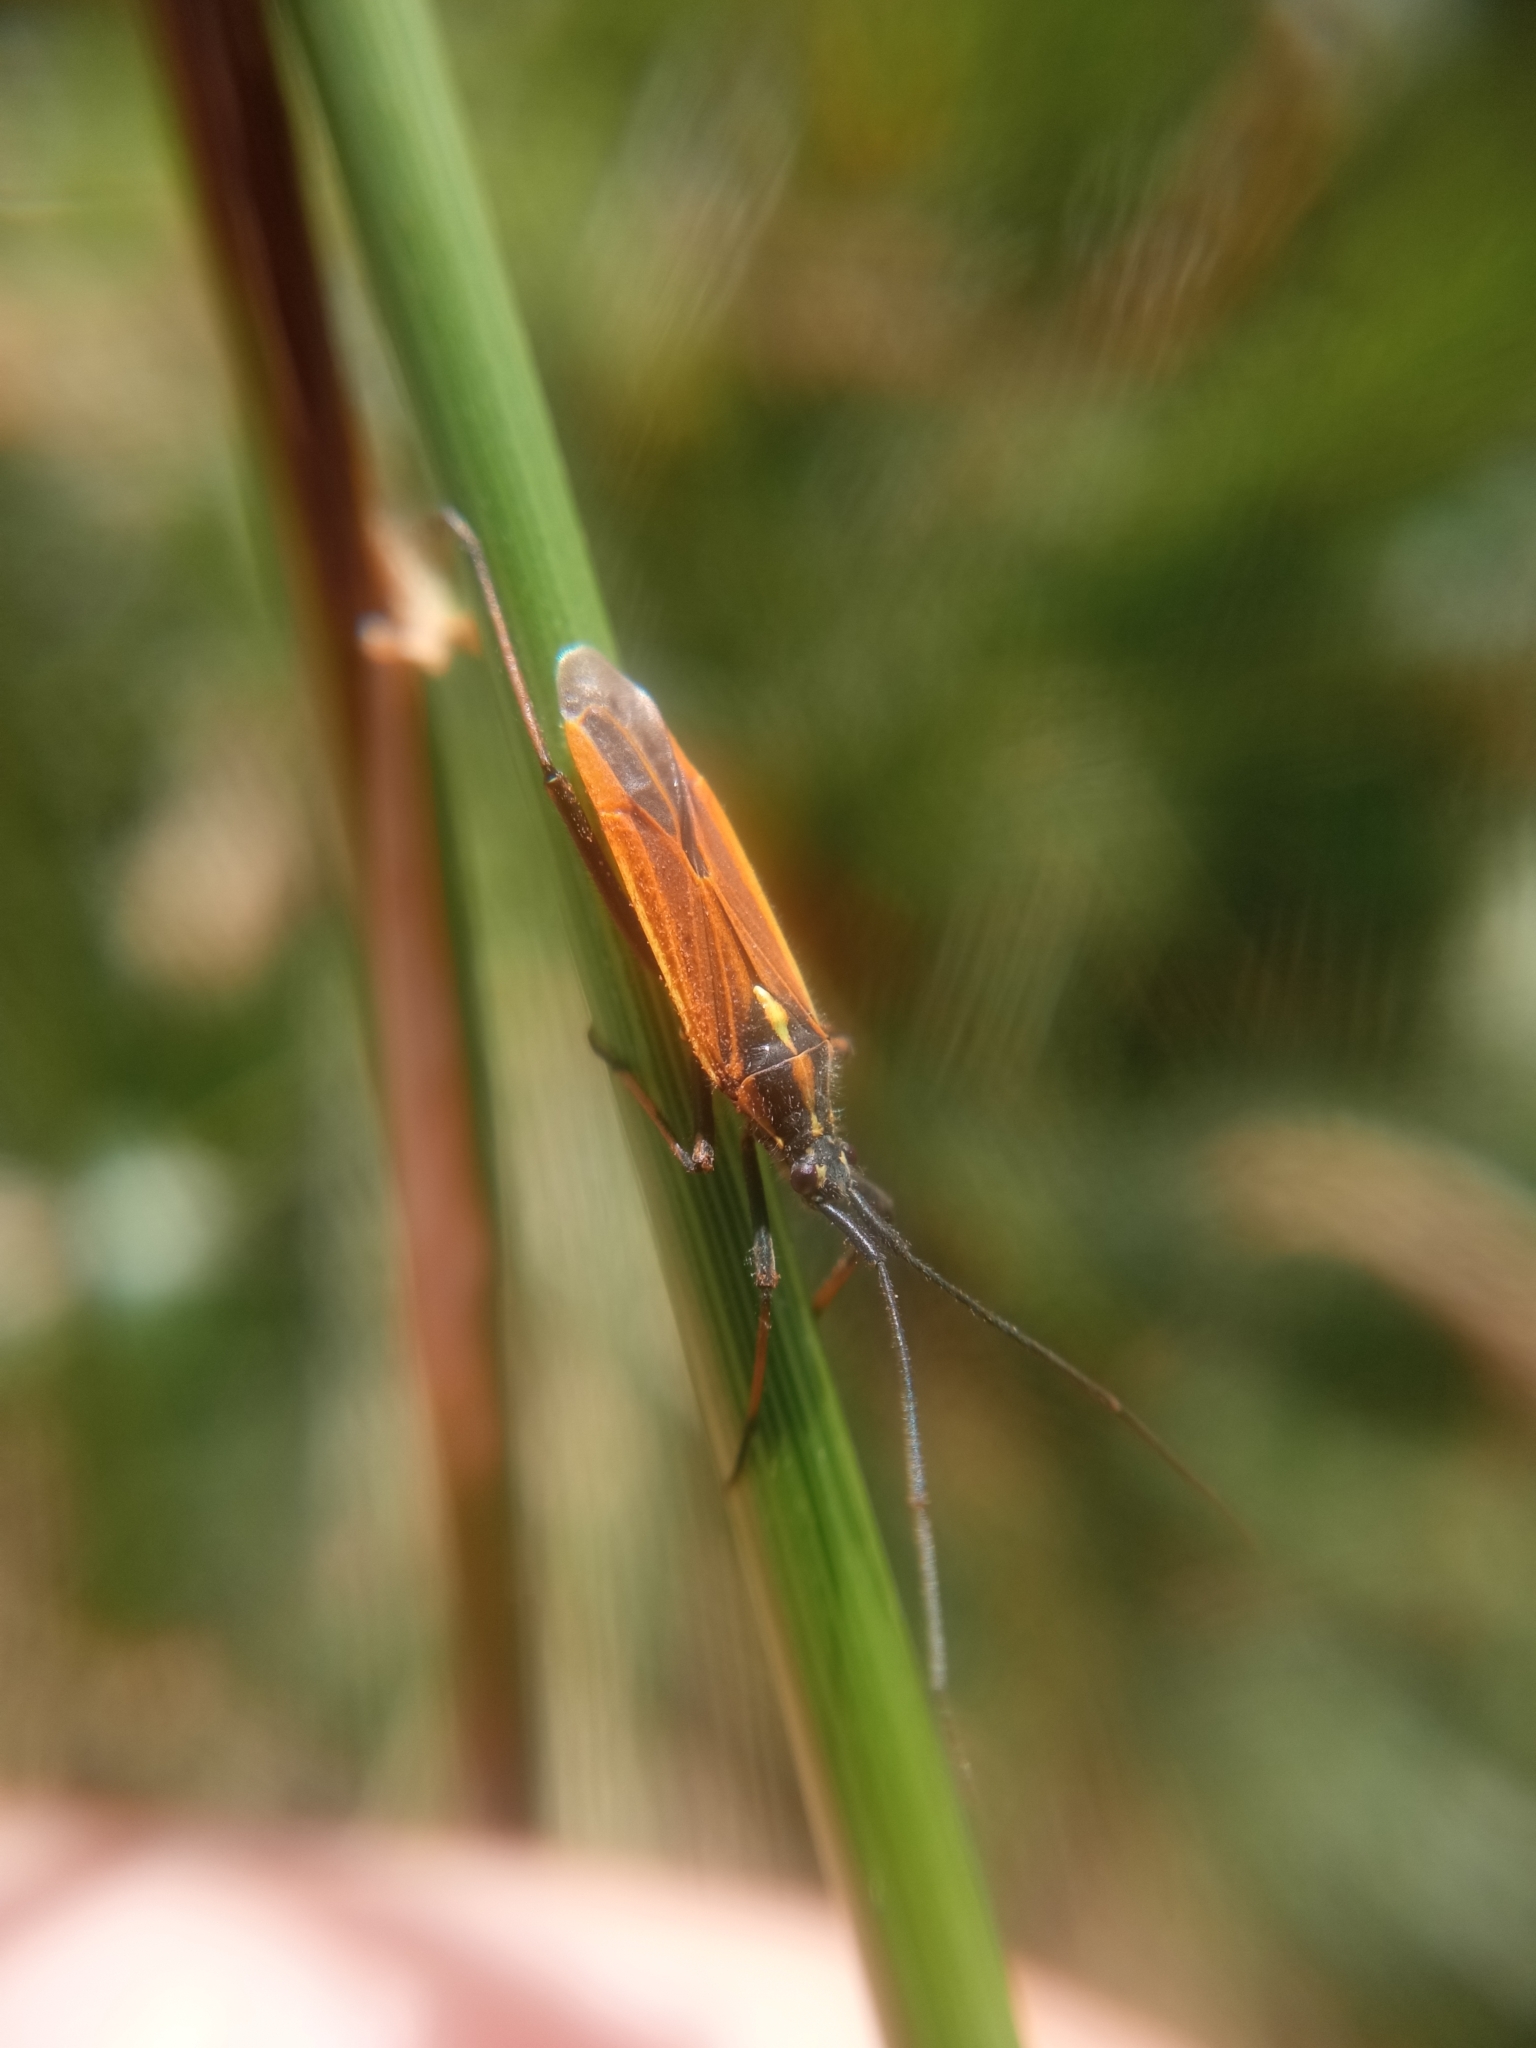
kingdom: Animalia
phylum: Arthropoda
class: Insecta
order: Hemiptera
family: Miridae
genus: Leptopterna
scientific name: Leptopterna dolabrata
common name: Meadow plant bug
